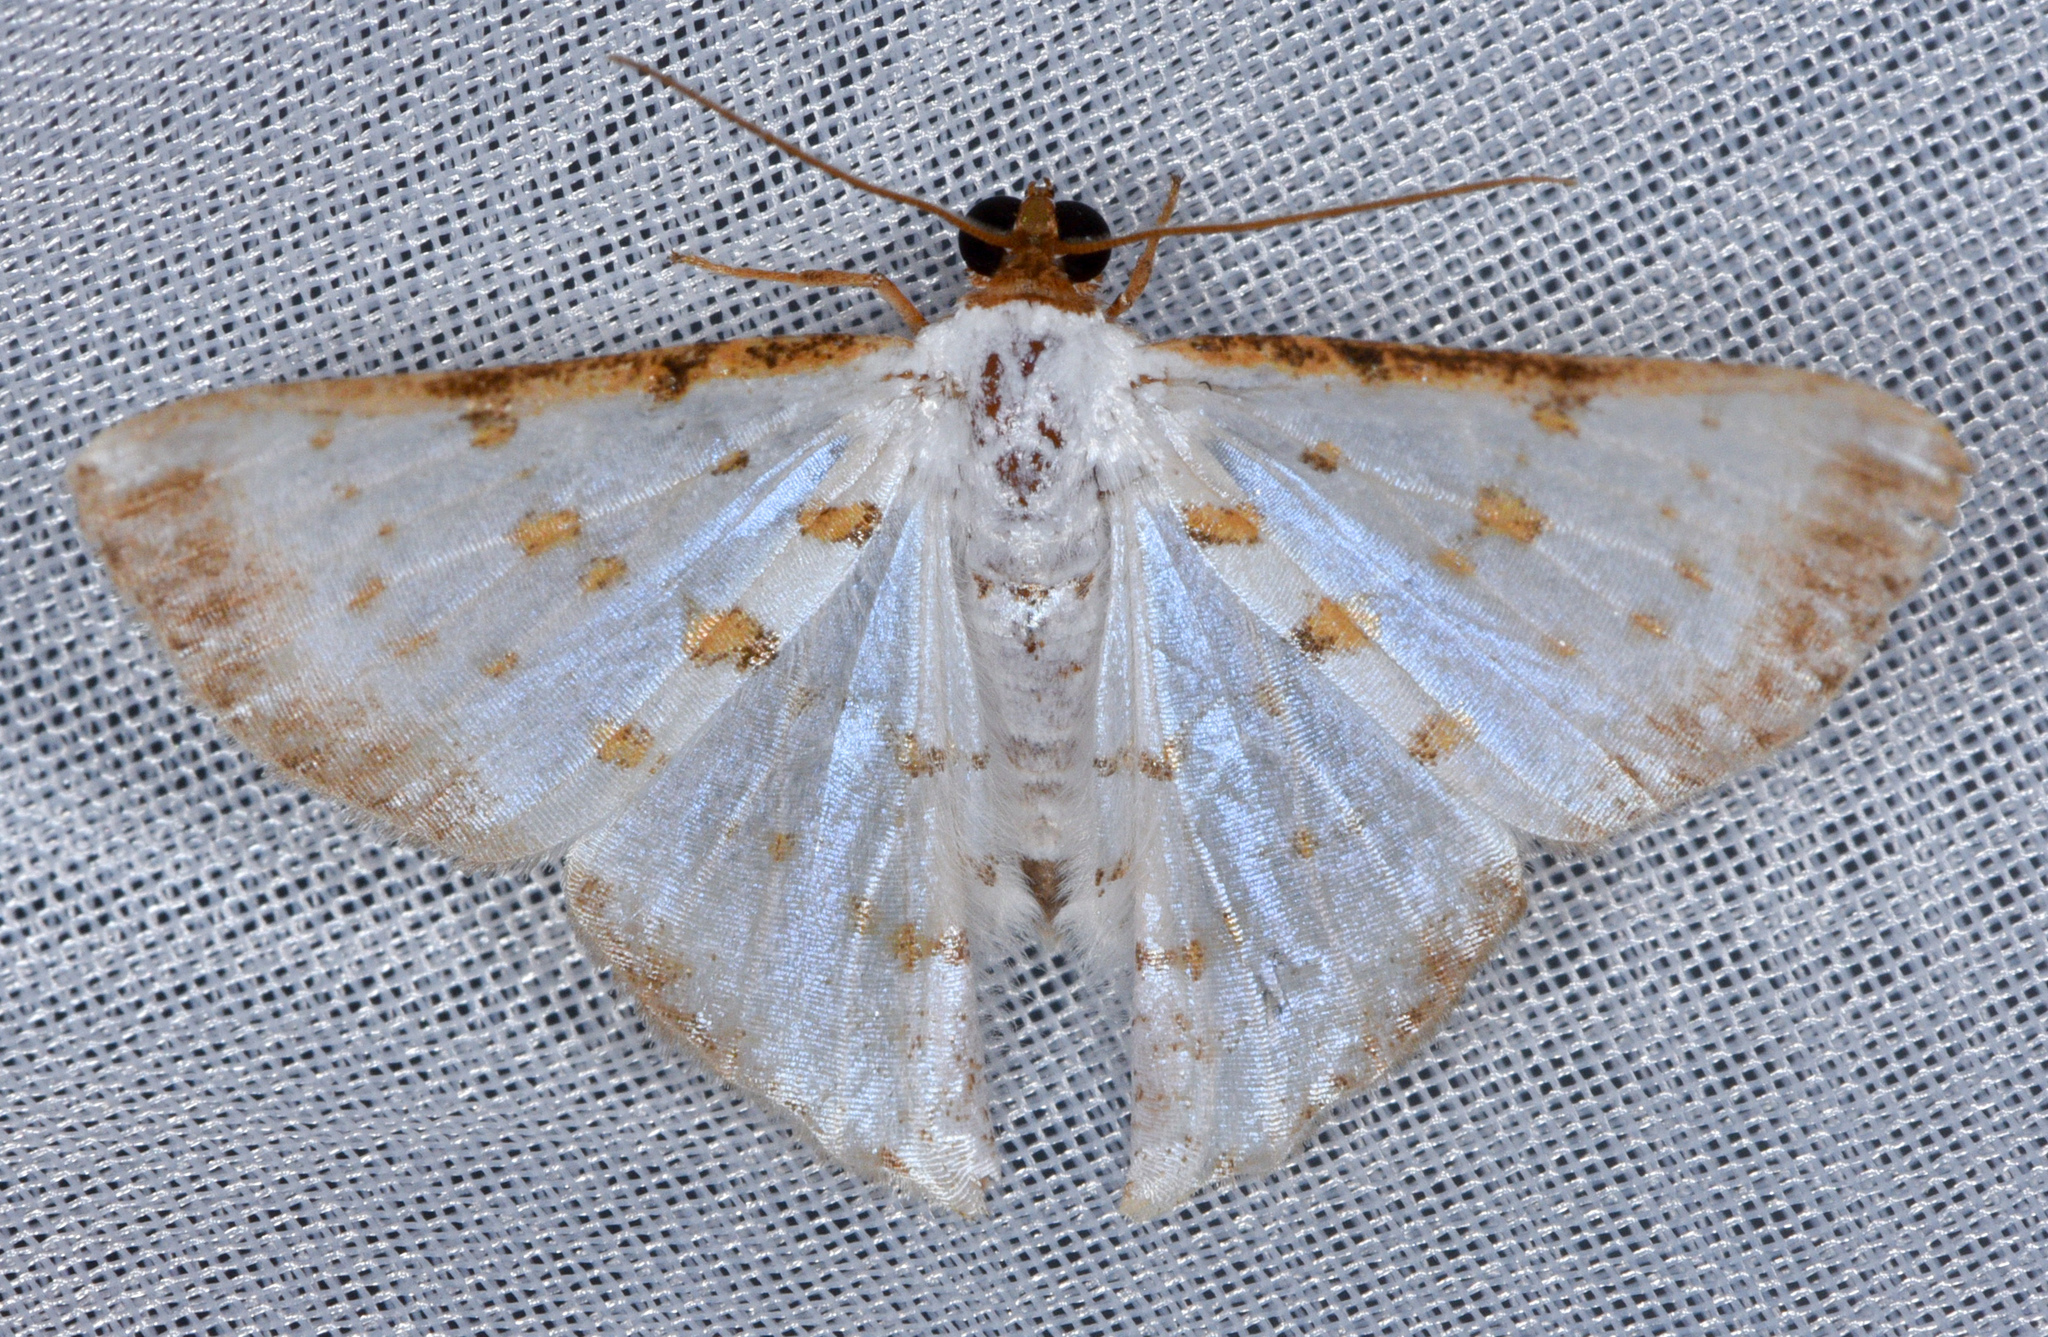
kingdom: Animalia
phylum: Arthropoda
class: Insecta
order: Lepidoptera
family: Geometridae
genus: Ballantiophora
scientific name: Ballantiophora gibbiferata
